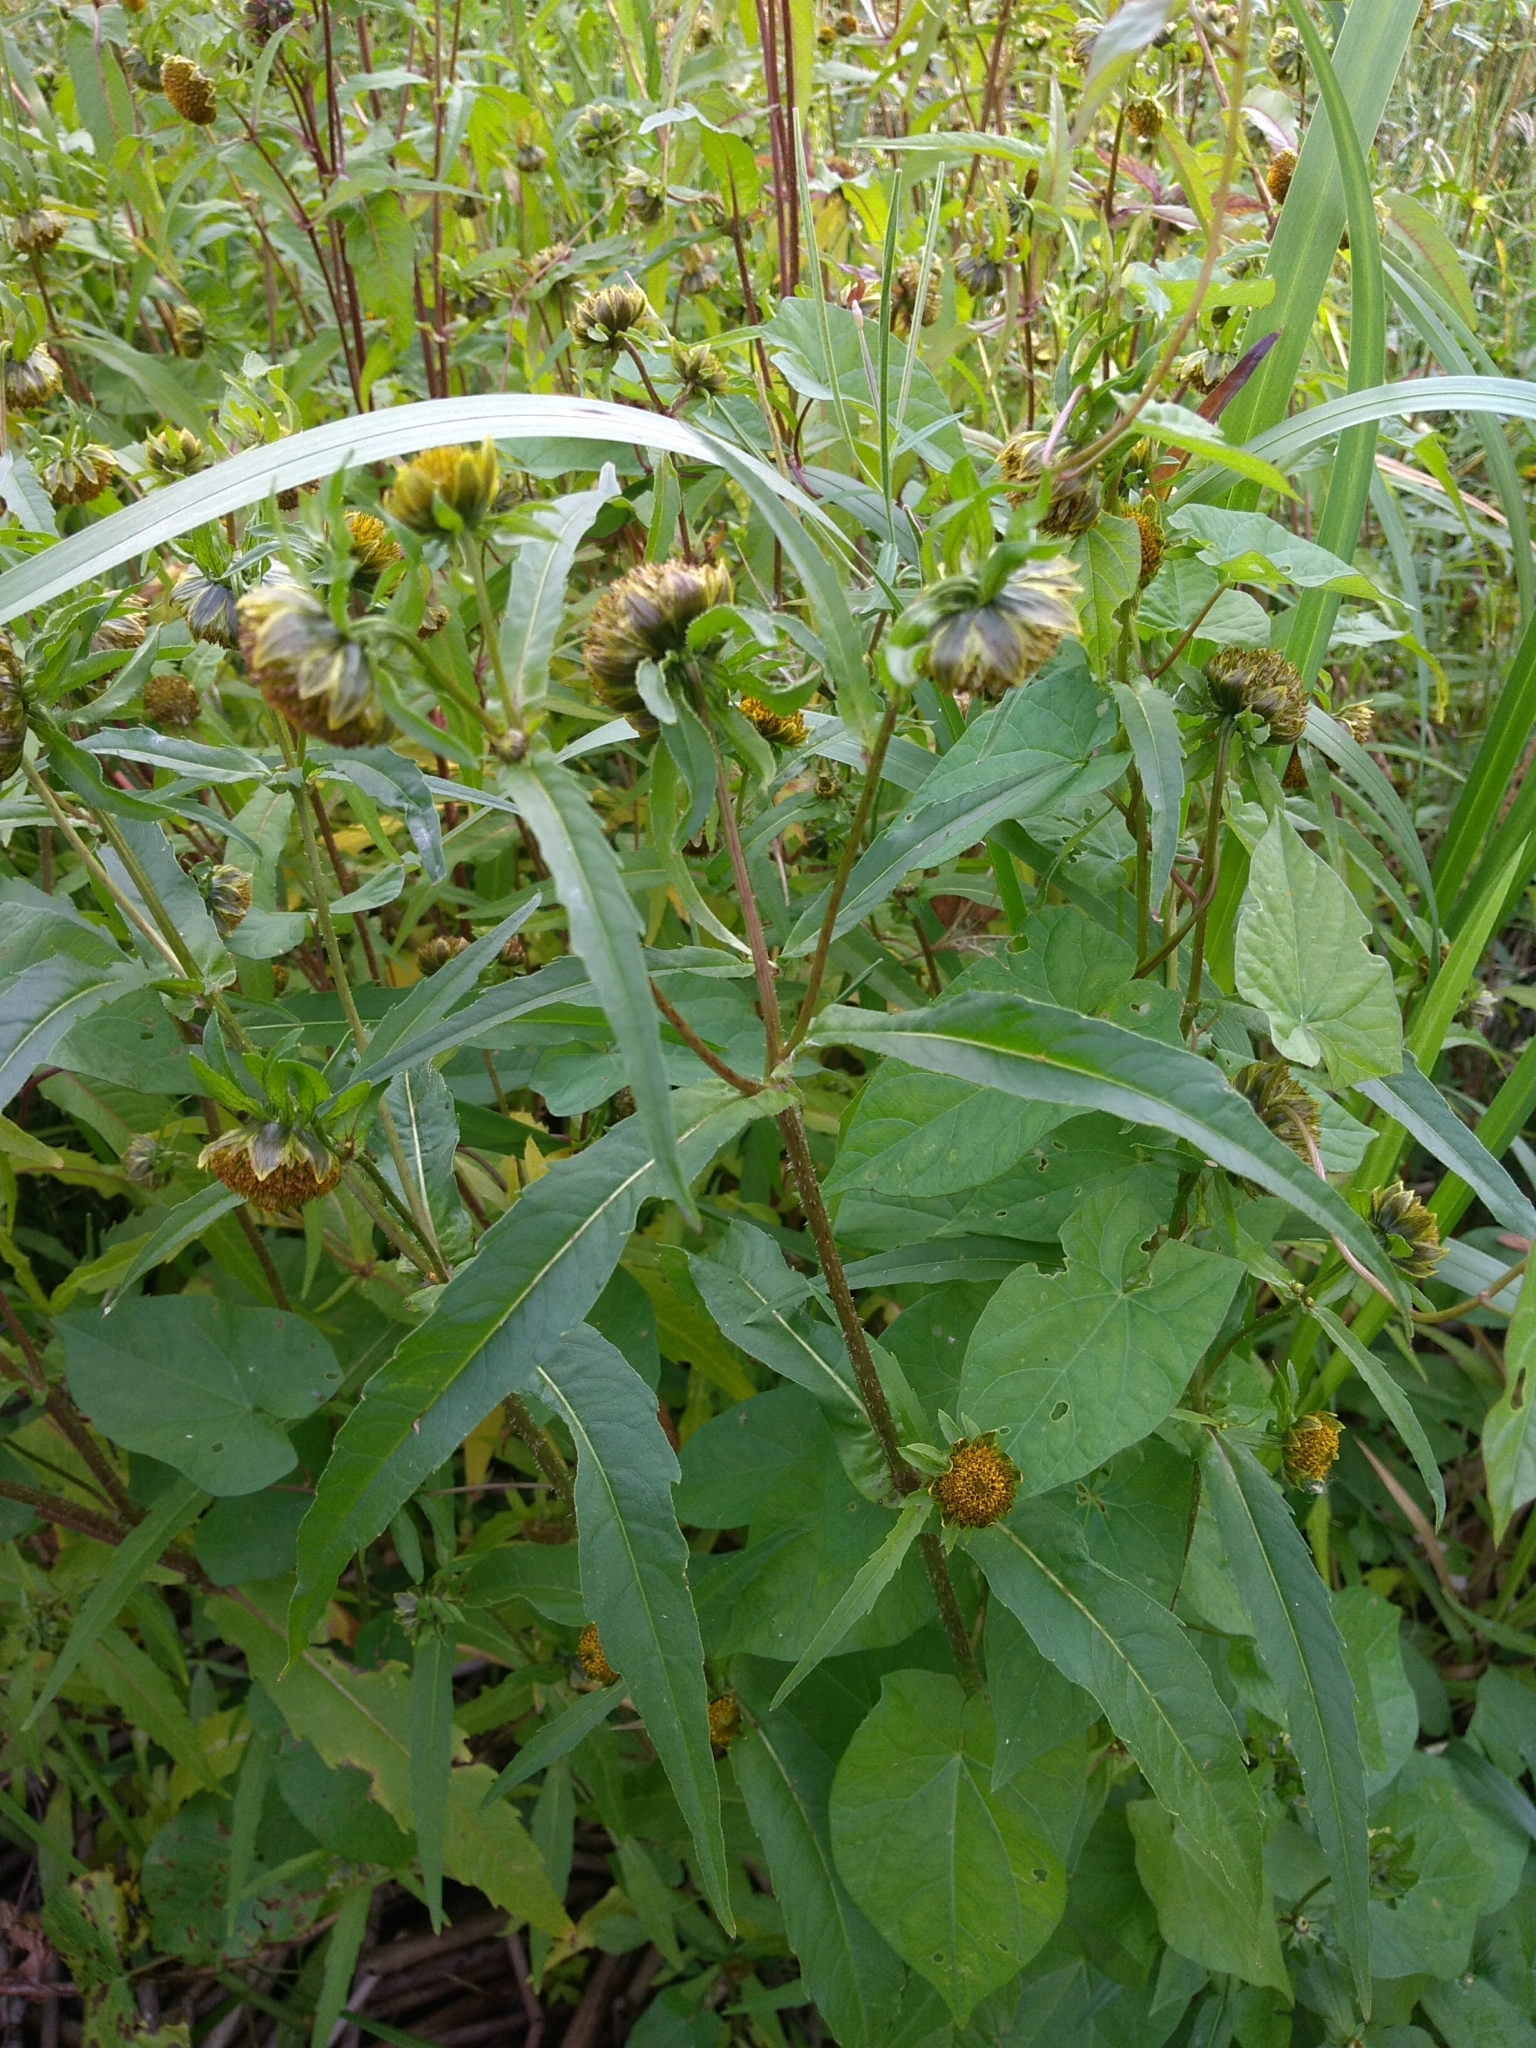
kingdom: Plantae
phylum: Tracheophyta
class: Magnoliopsida
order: Asterales
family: Asteraceae
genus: Bidens
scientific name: Bidens cernua
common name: Nodding bur-marigold
